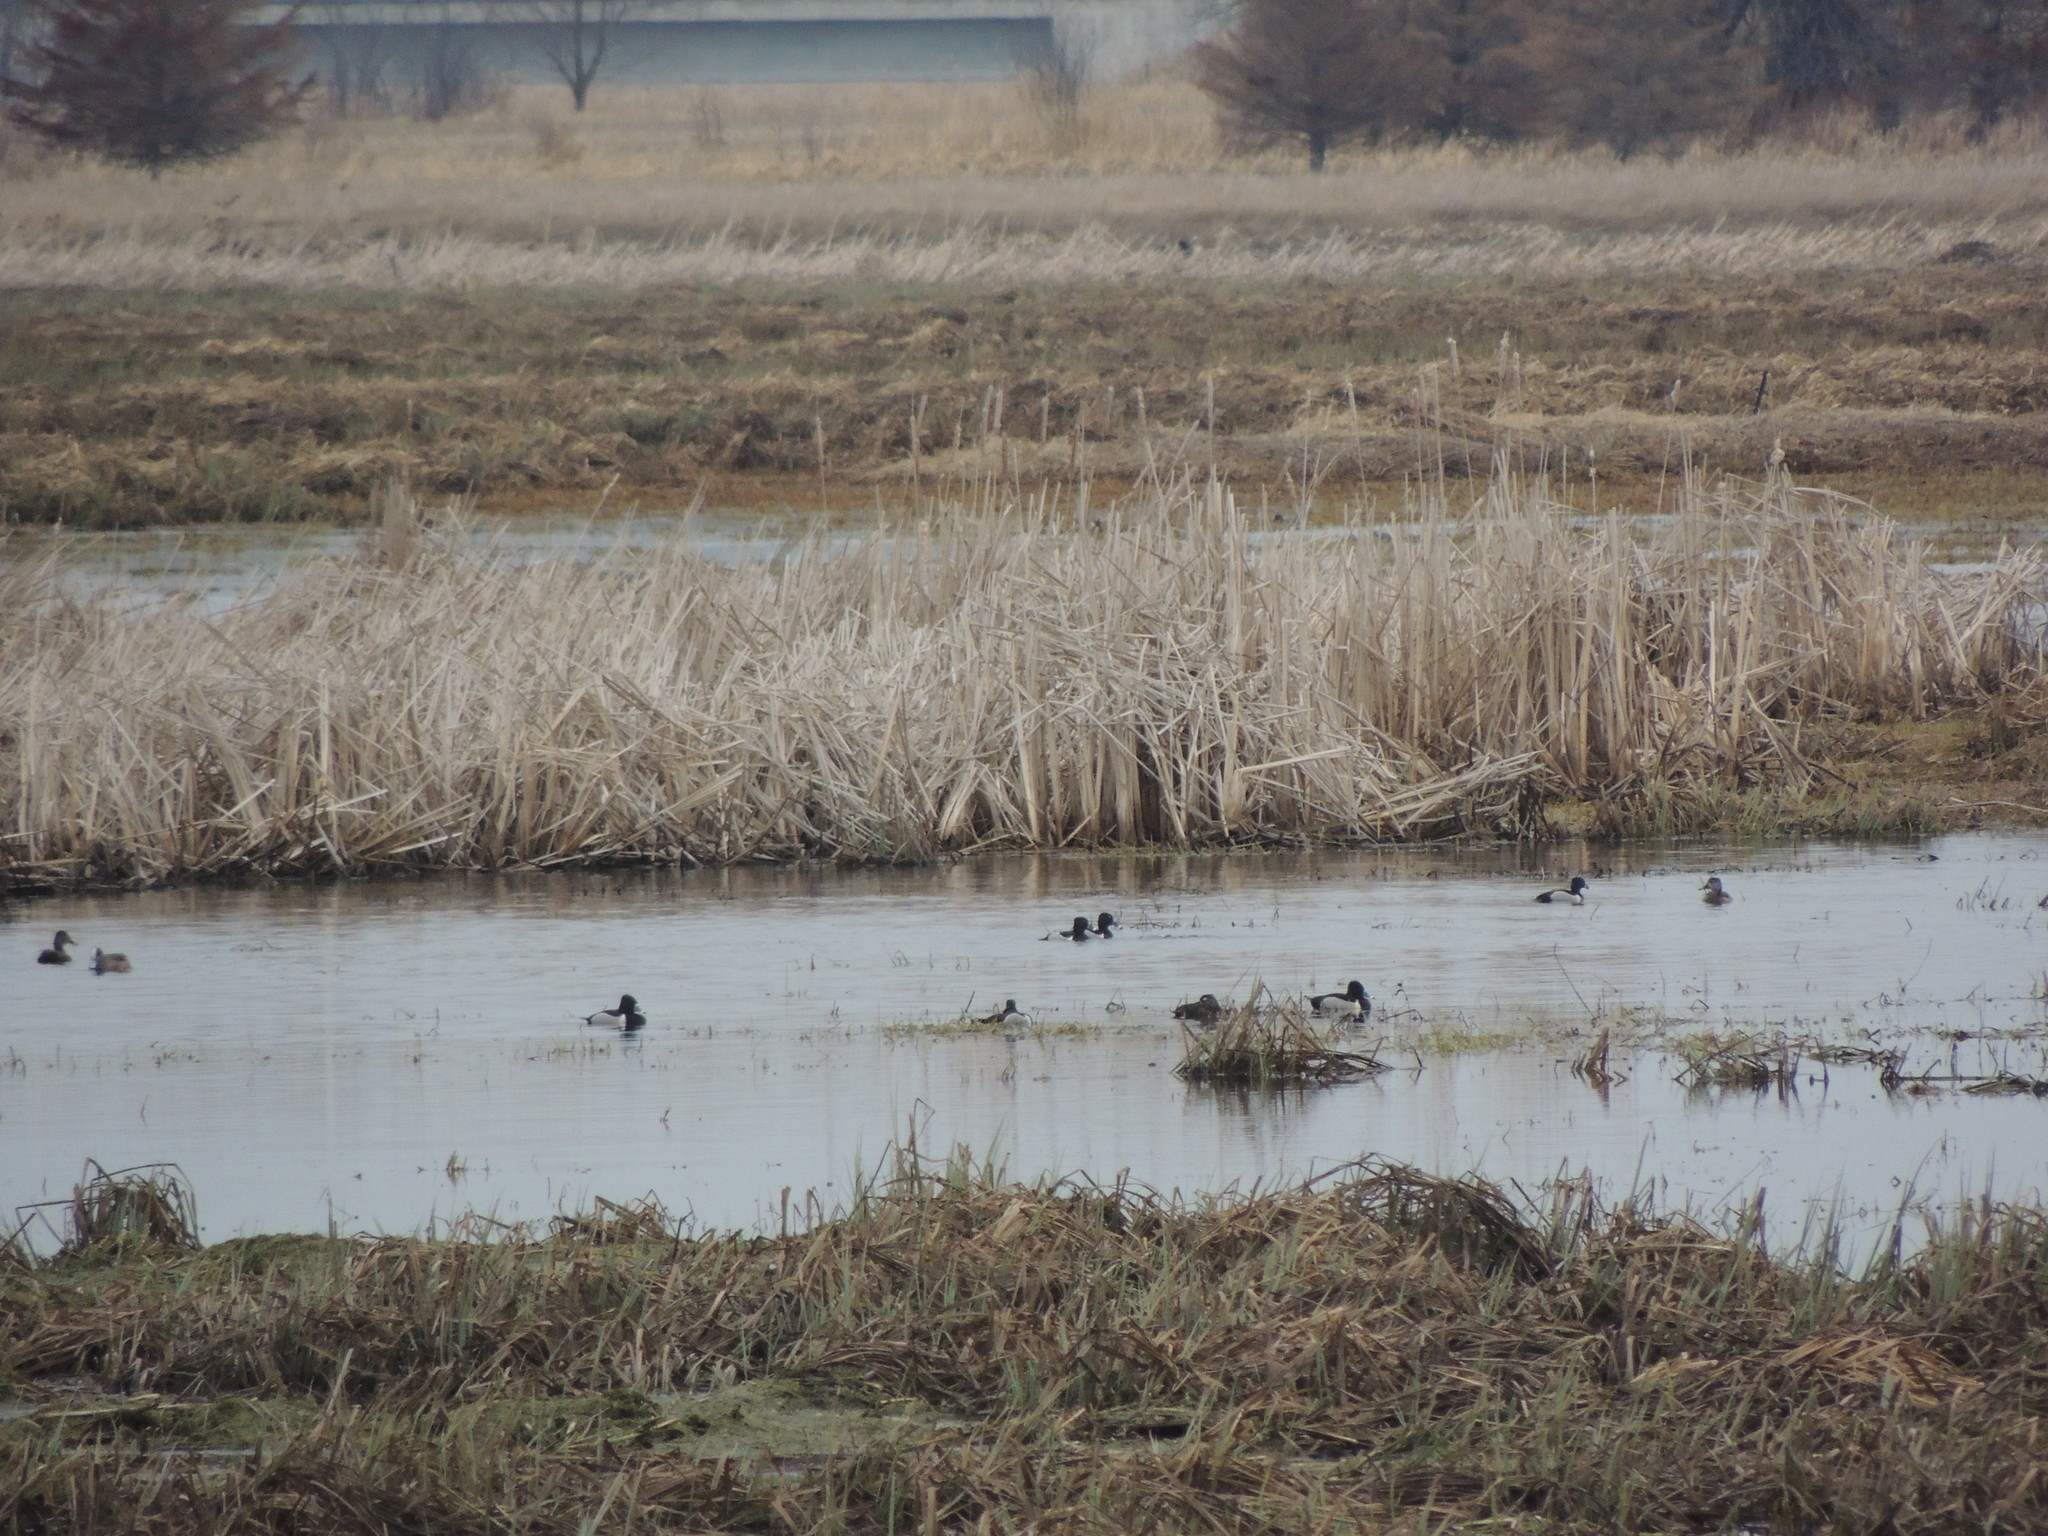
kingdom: Animalia
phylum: Chordata
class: Aves
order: Anseriformes
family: Anatidae
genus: Aythya
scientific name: Aythya collaris
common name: Ring-necked duck
